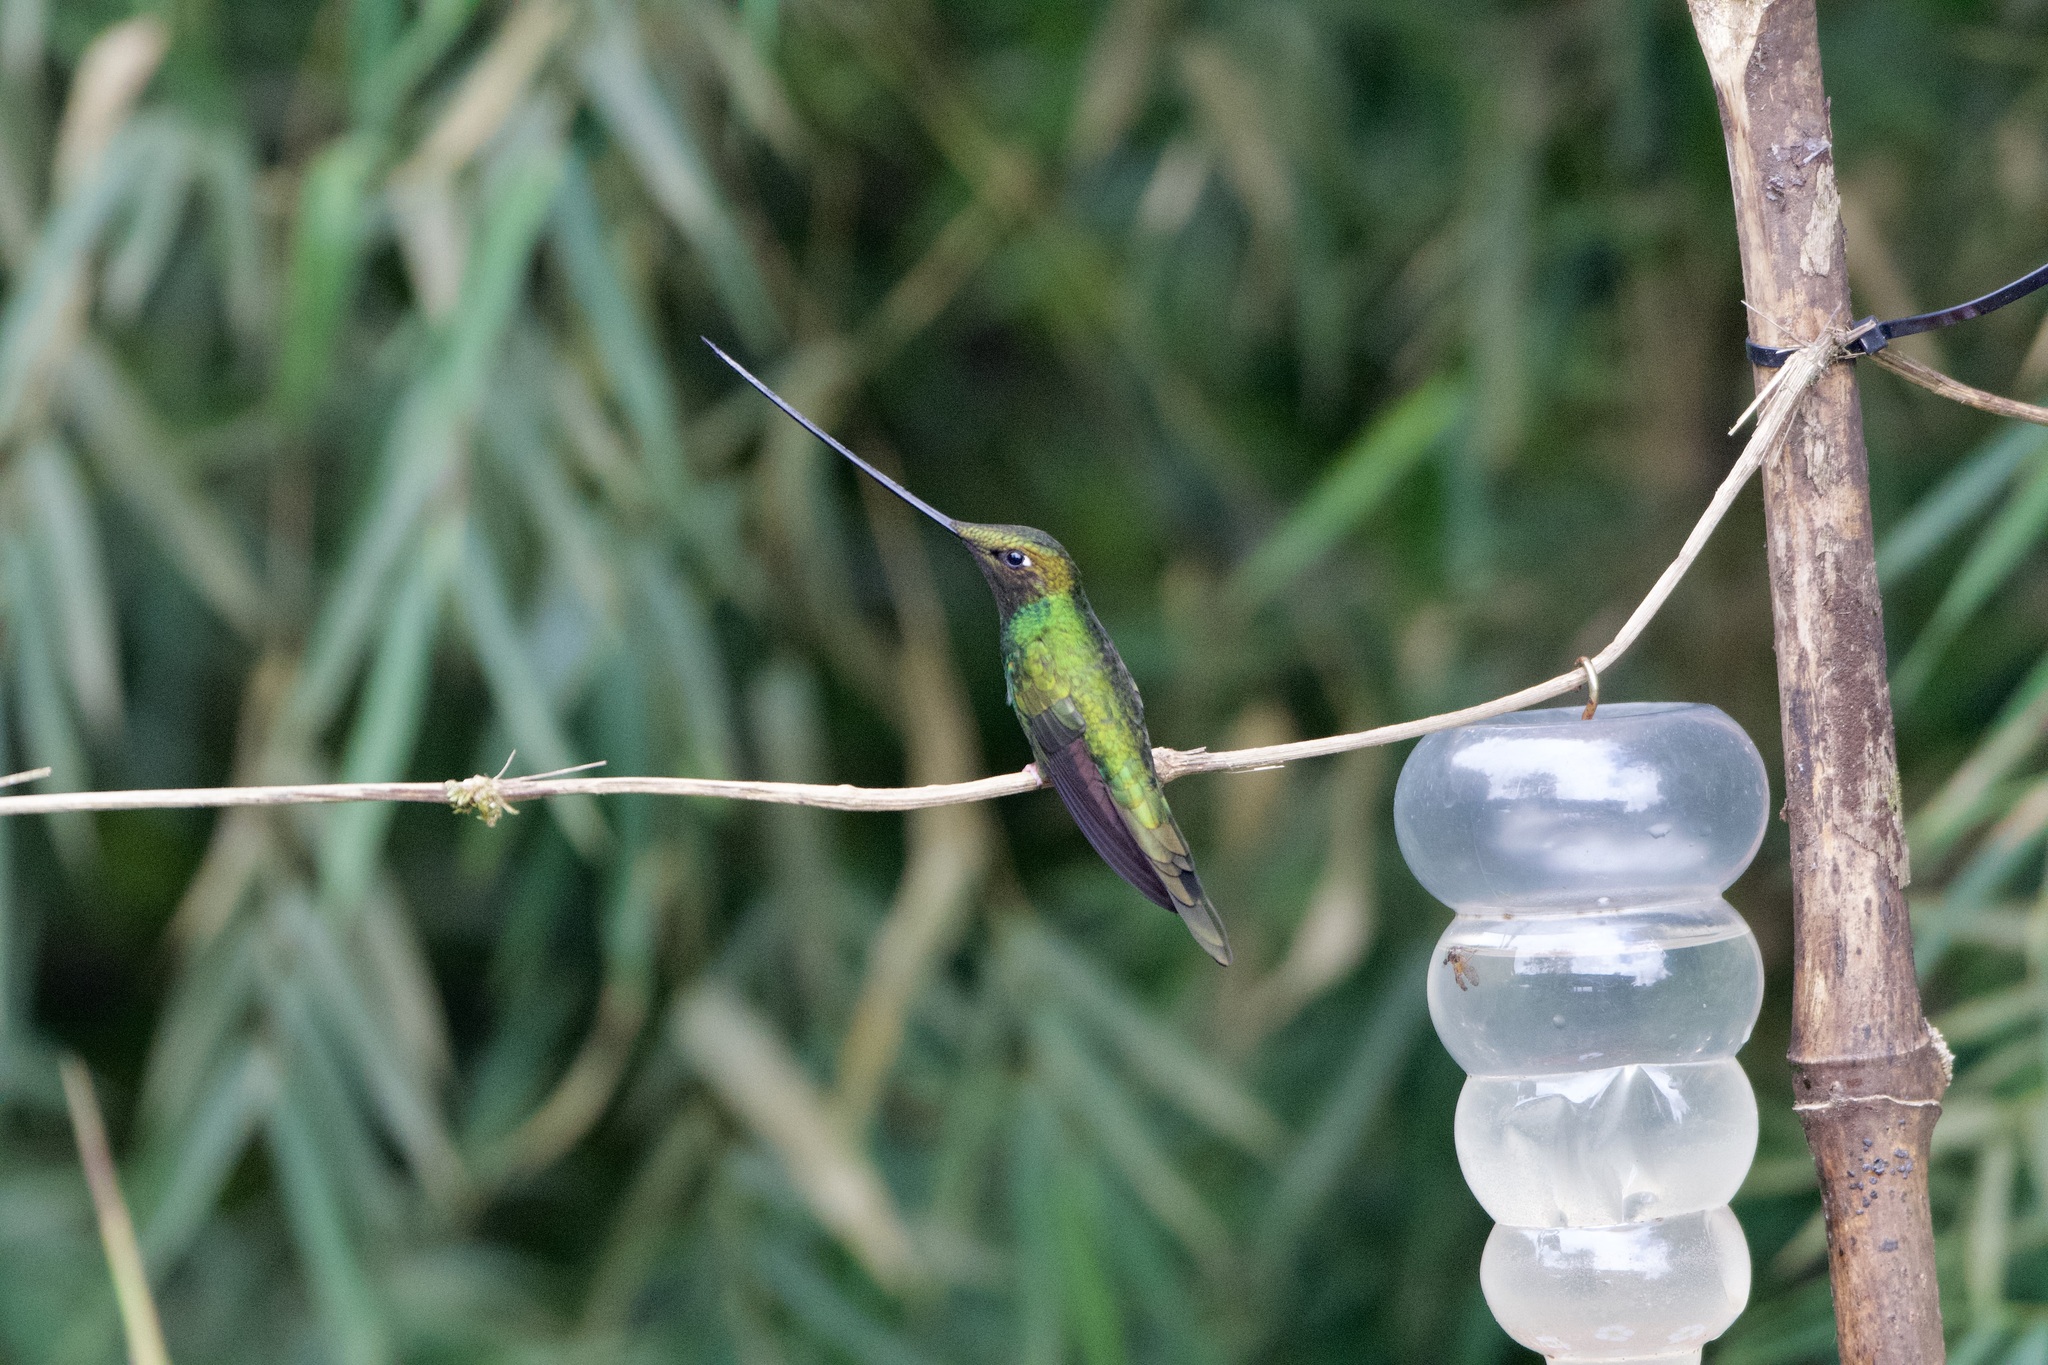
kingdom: Animalia
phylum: Chordata
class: Aves
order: Apodiformes
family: Trochilidae
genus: Ensifera
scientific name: Ensifera ensifera
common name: Sword-billed hummingbird
